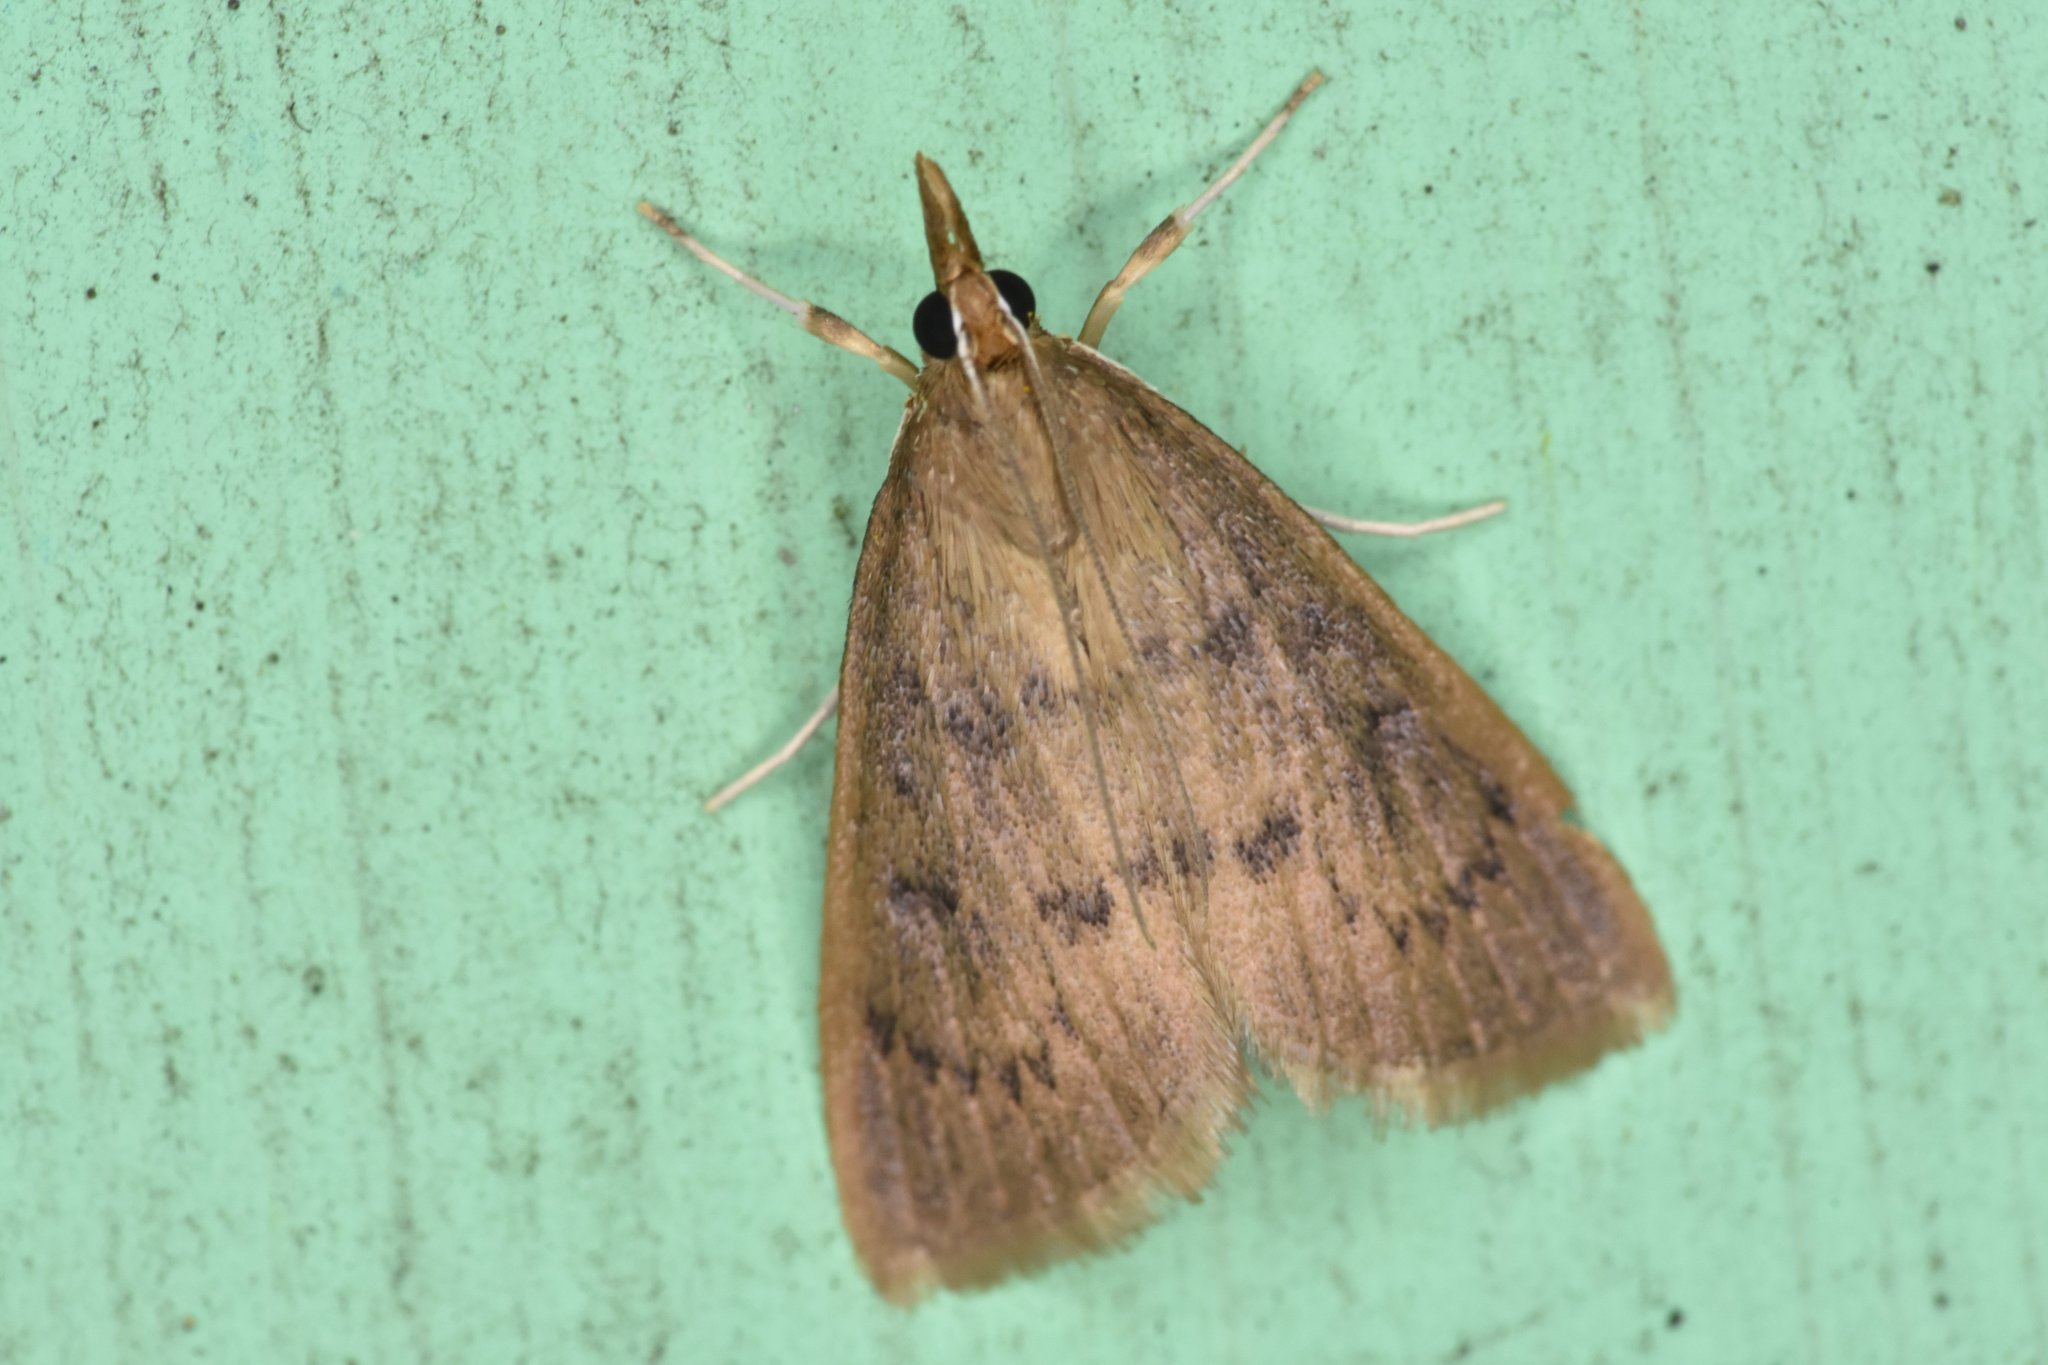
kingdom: Animalia
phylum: Arthropoda
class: Insecta
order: Lepidoptera
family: Crambidae
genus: Oenobotys
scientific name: Oenobotys vinotinctalis
